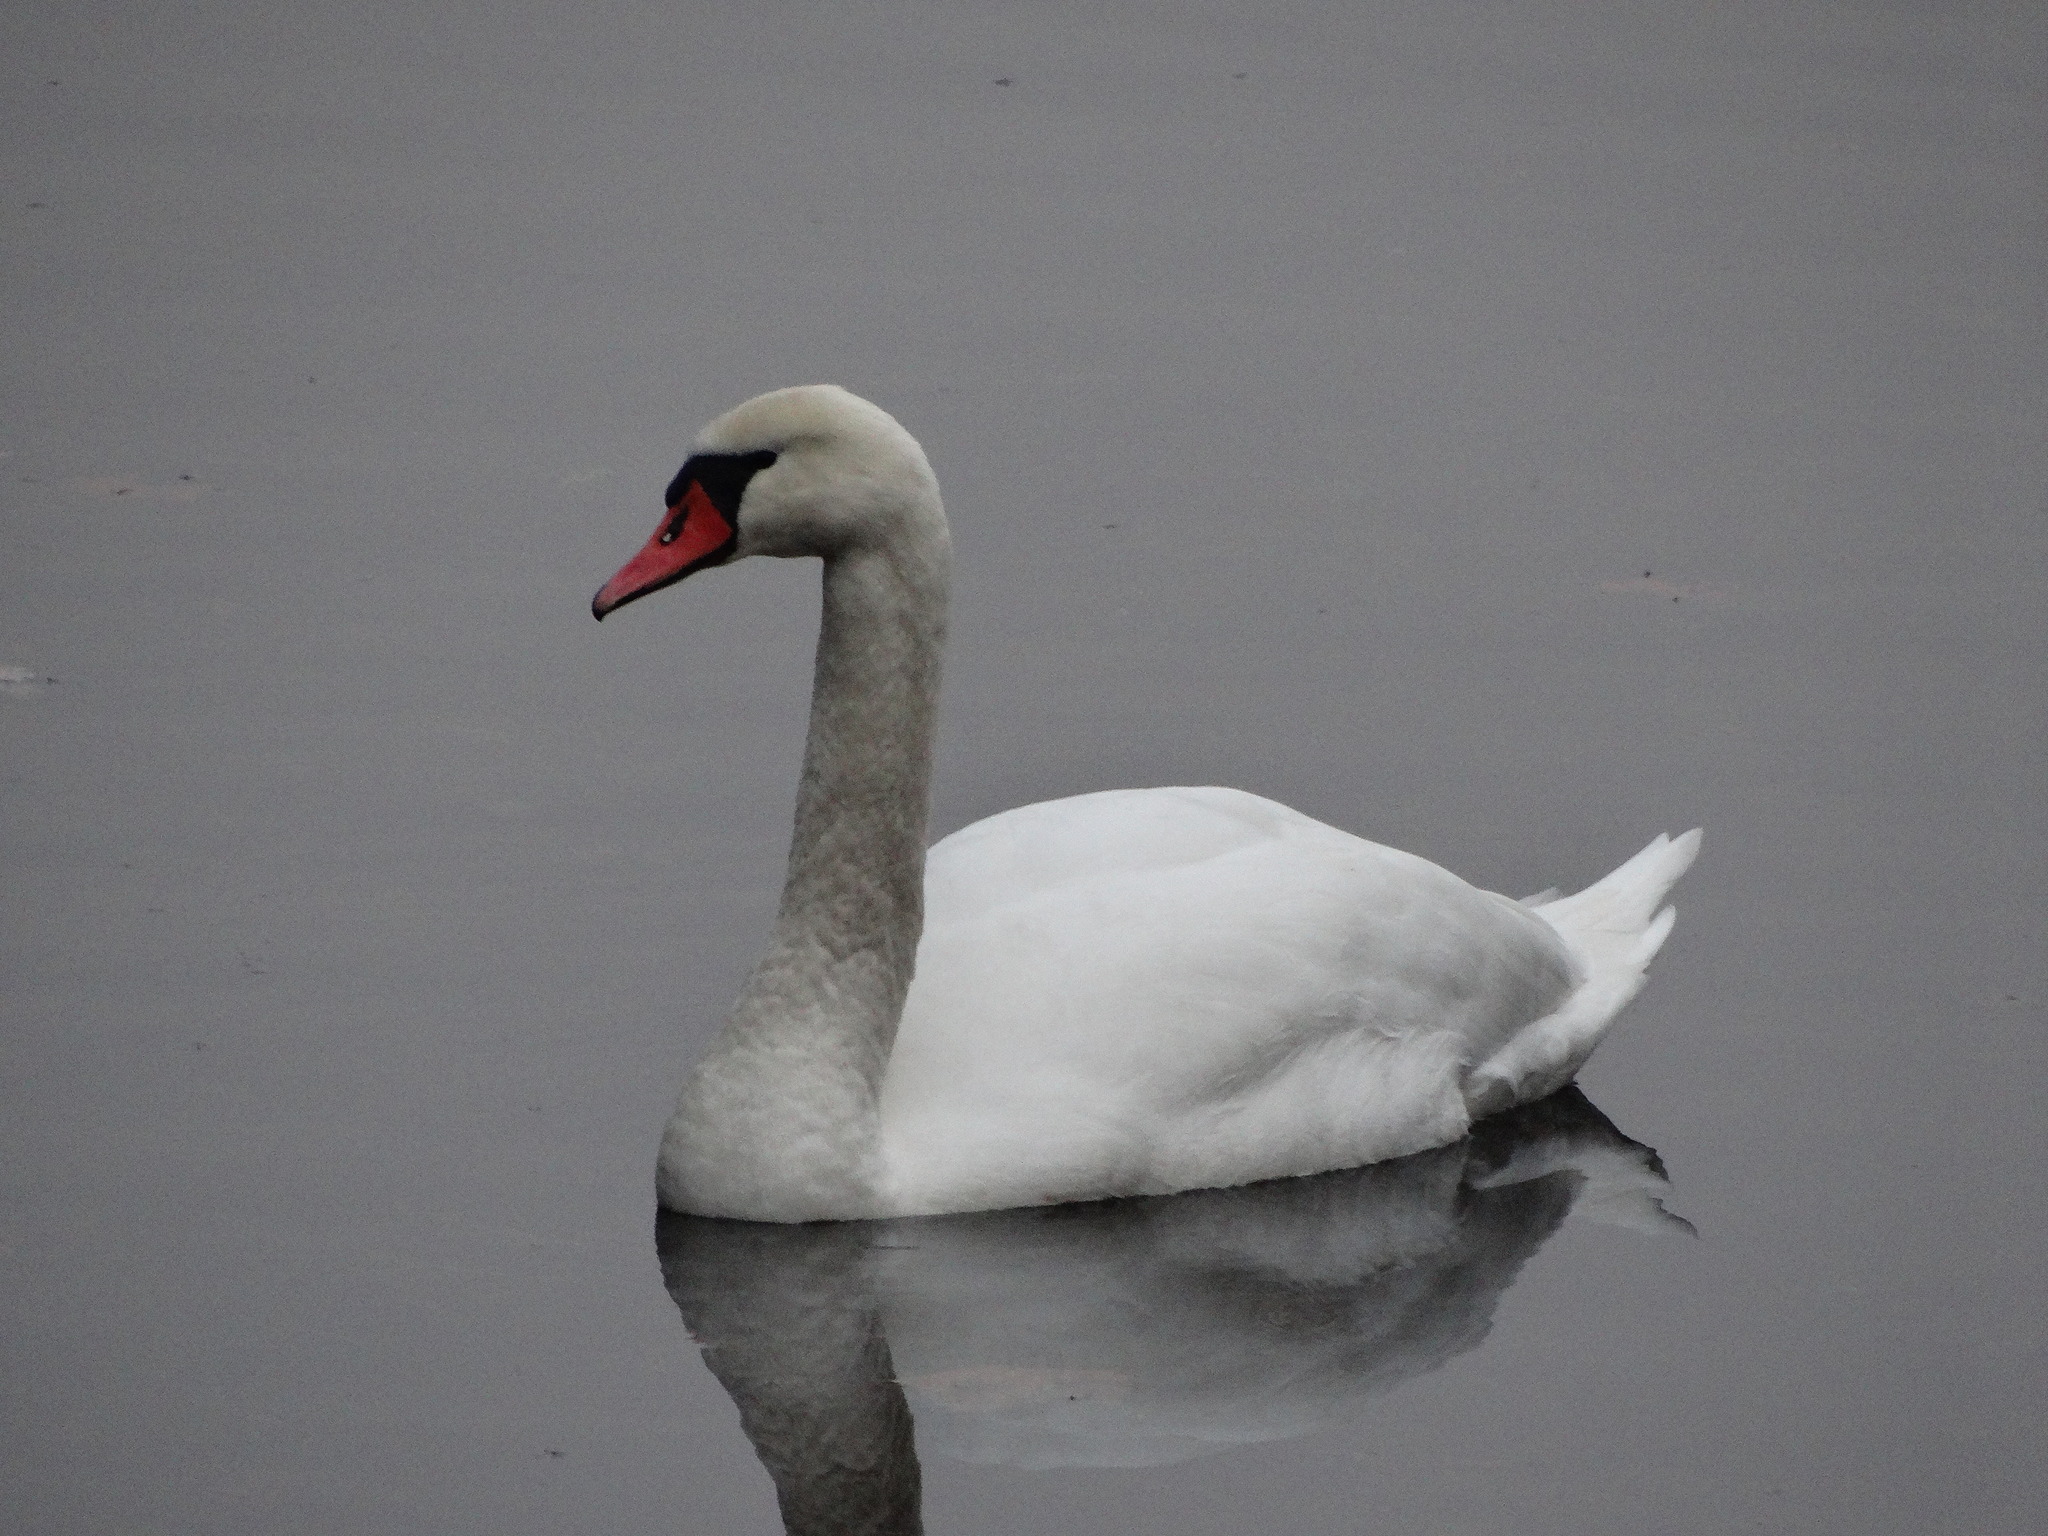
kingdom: Animalia
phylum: Chordata
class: Aves
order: Anseriformes
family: Anatidae
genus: Cygnus
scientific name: Cygnus olor
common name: Mute swan
